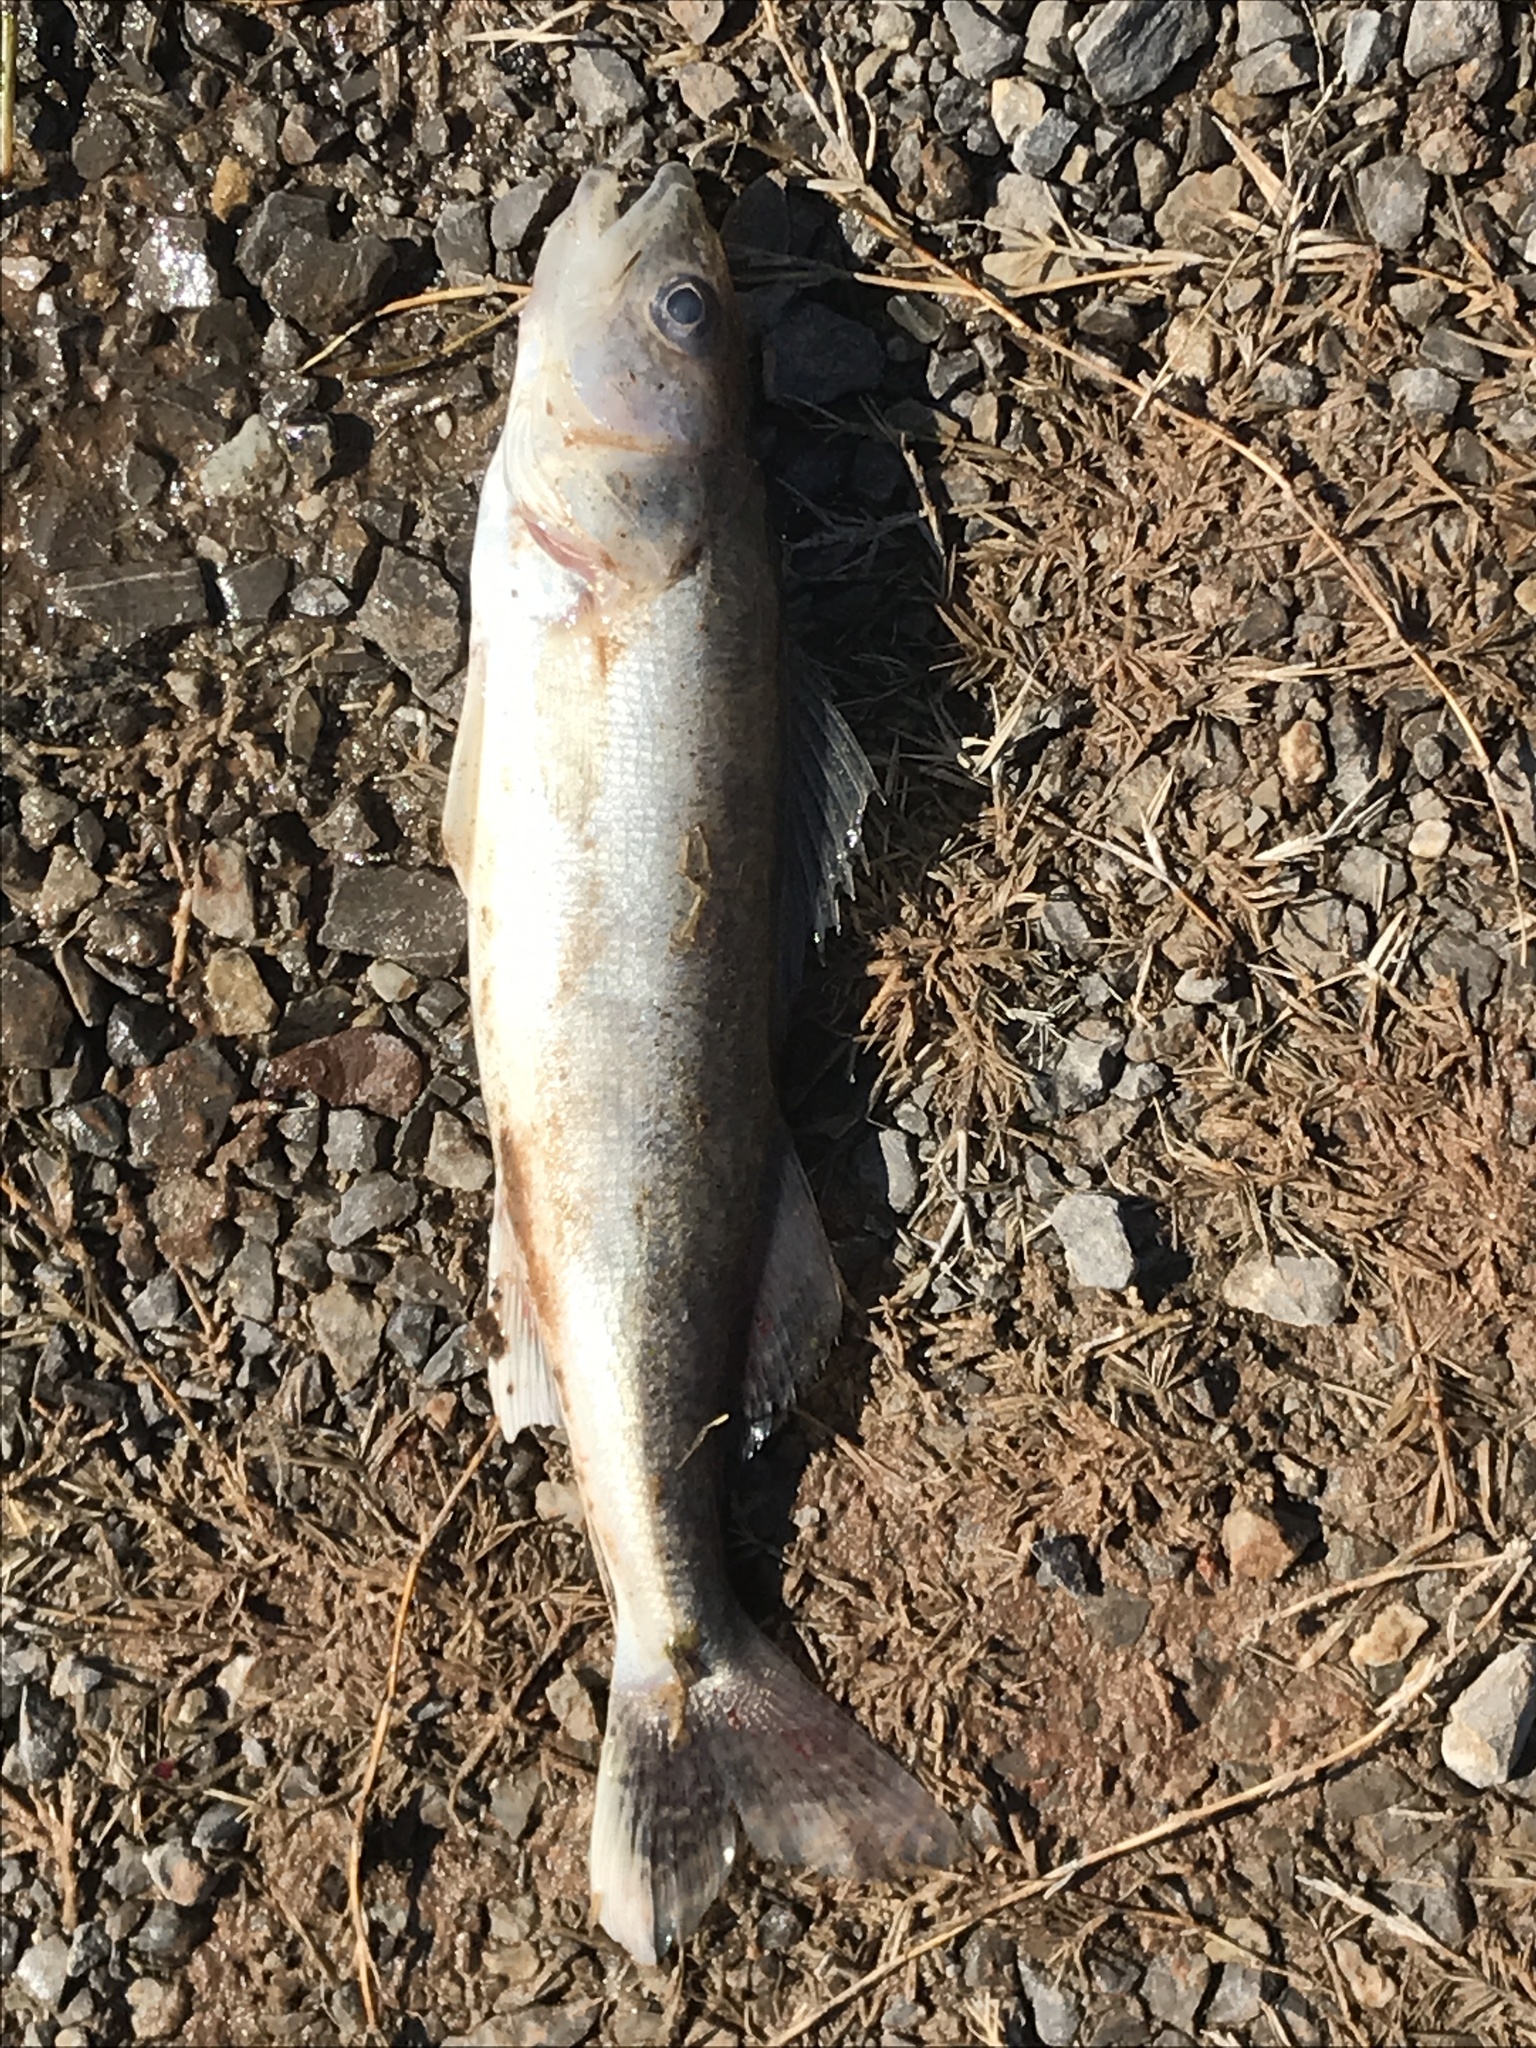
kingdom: Animalia
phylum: Chordata
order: Perciformes
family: Percidae
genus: Sander
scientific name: Sander vitreus
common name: Walleye
